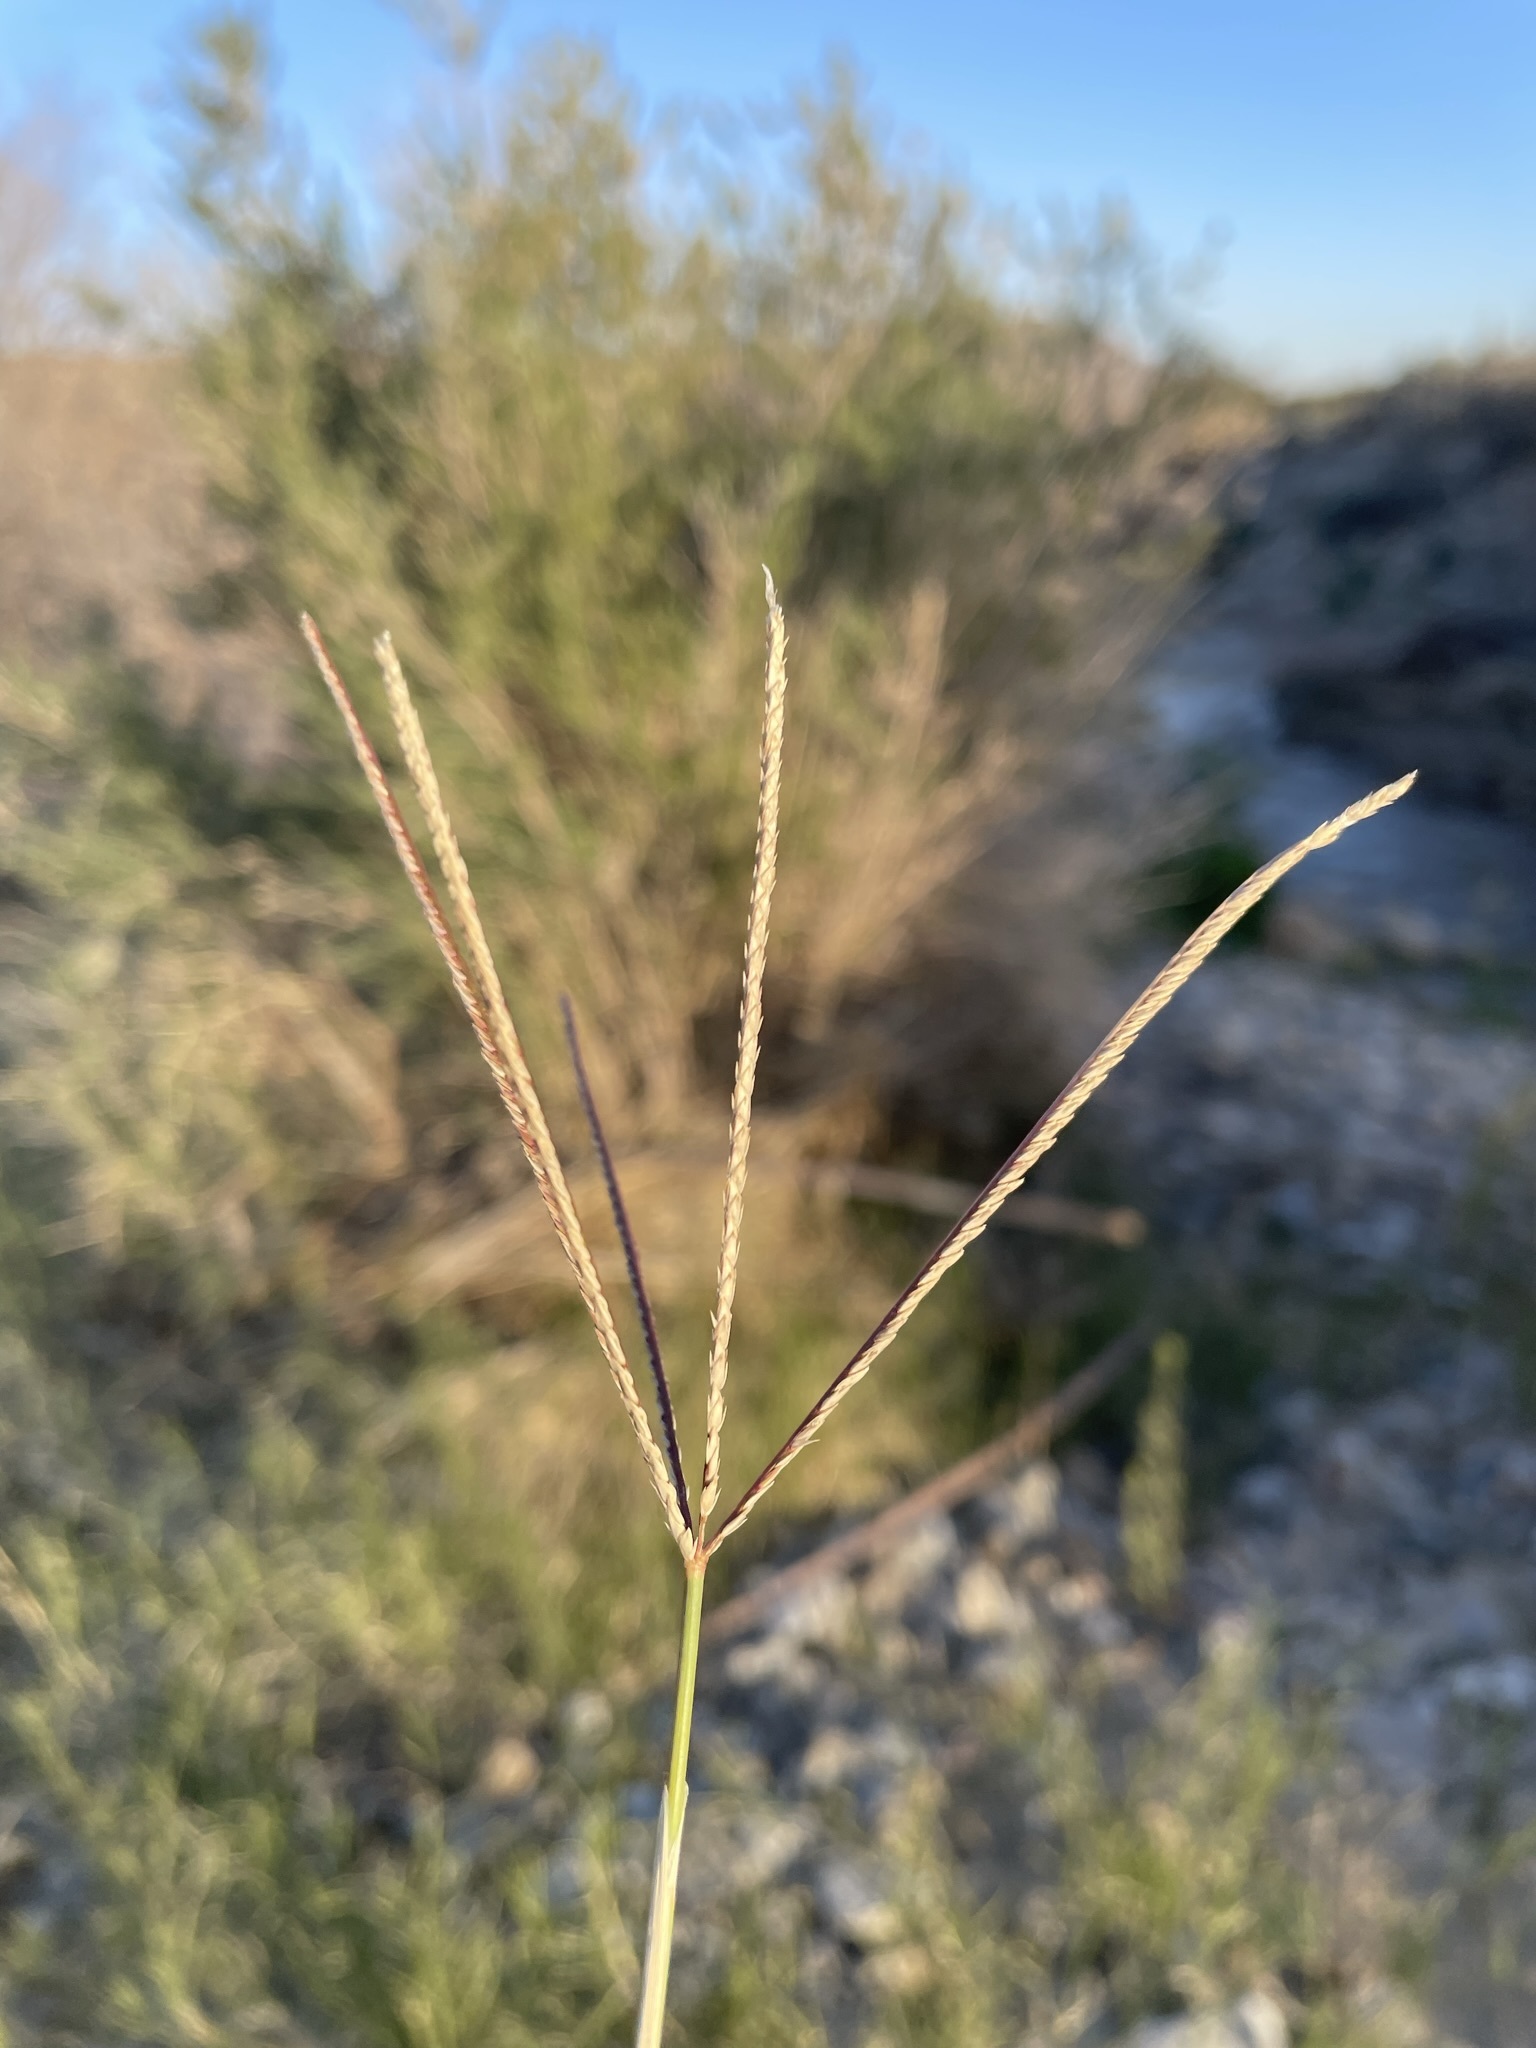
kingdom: Plantae
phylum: Tracheophyta
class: Liliopsida
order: Poales
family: Poaceae
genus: Cynodon
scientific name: Cynodon dactylon
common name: Bermuda grass
